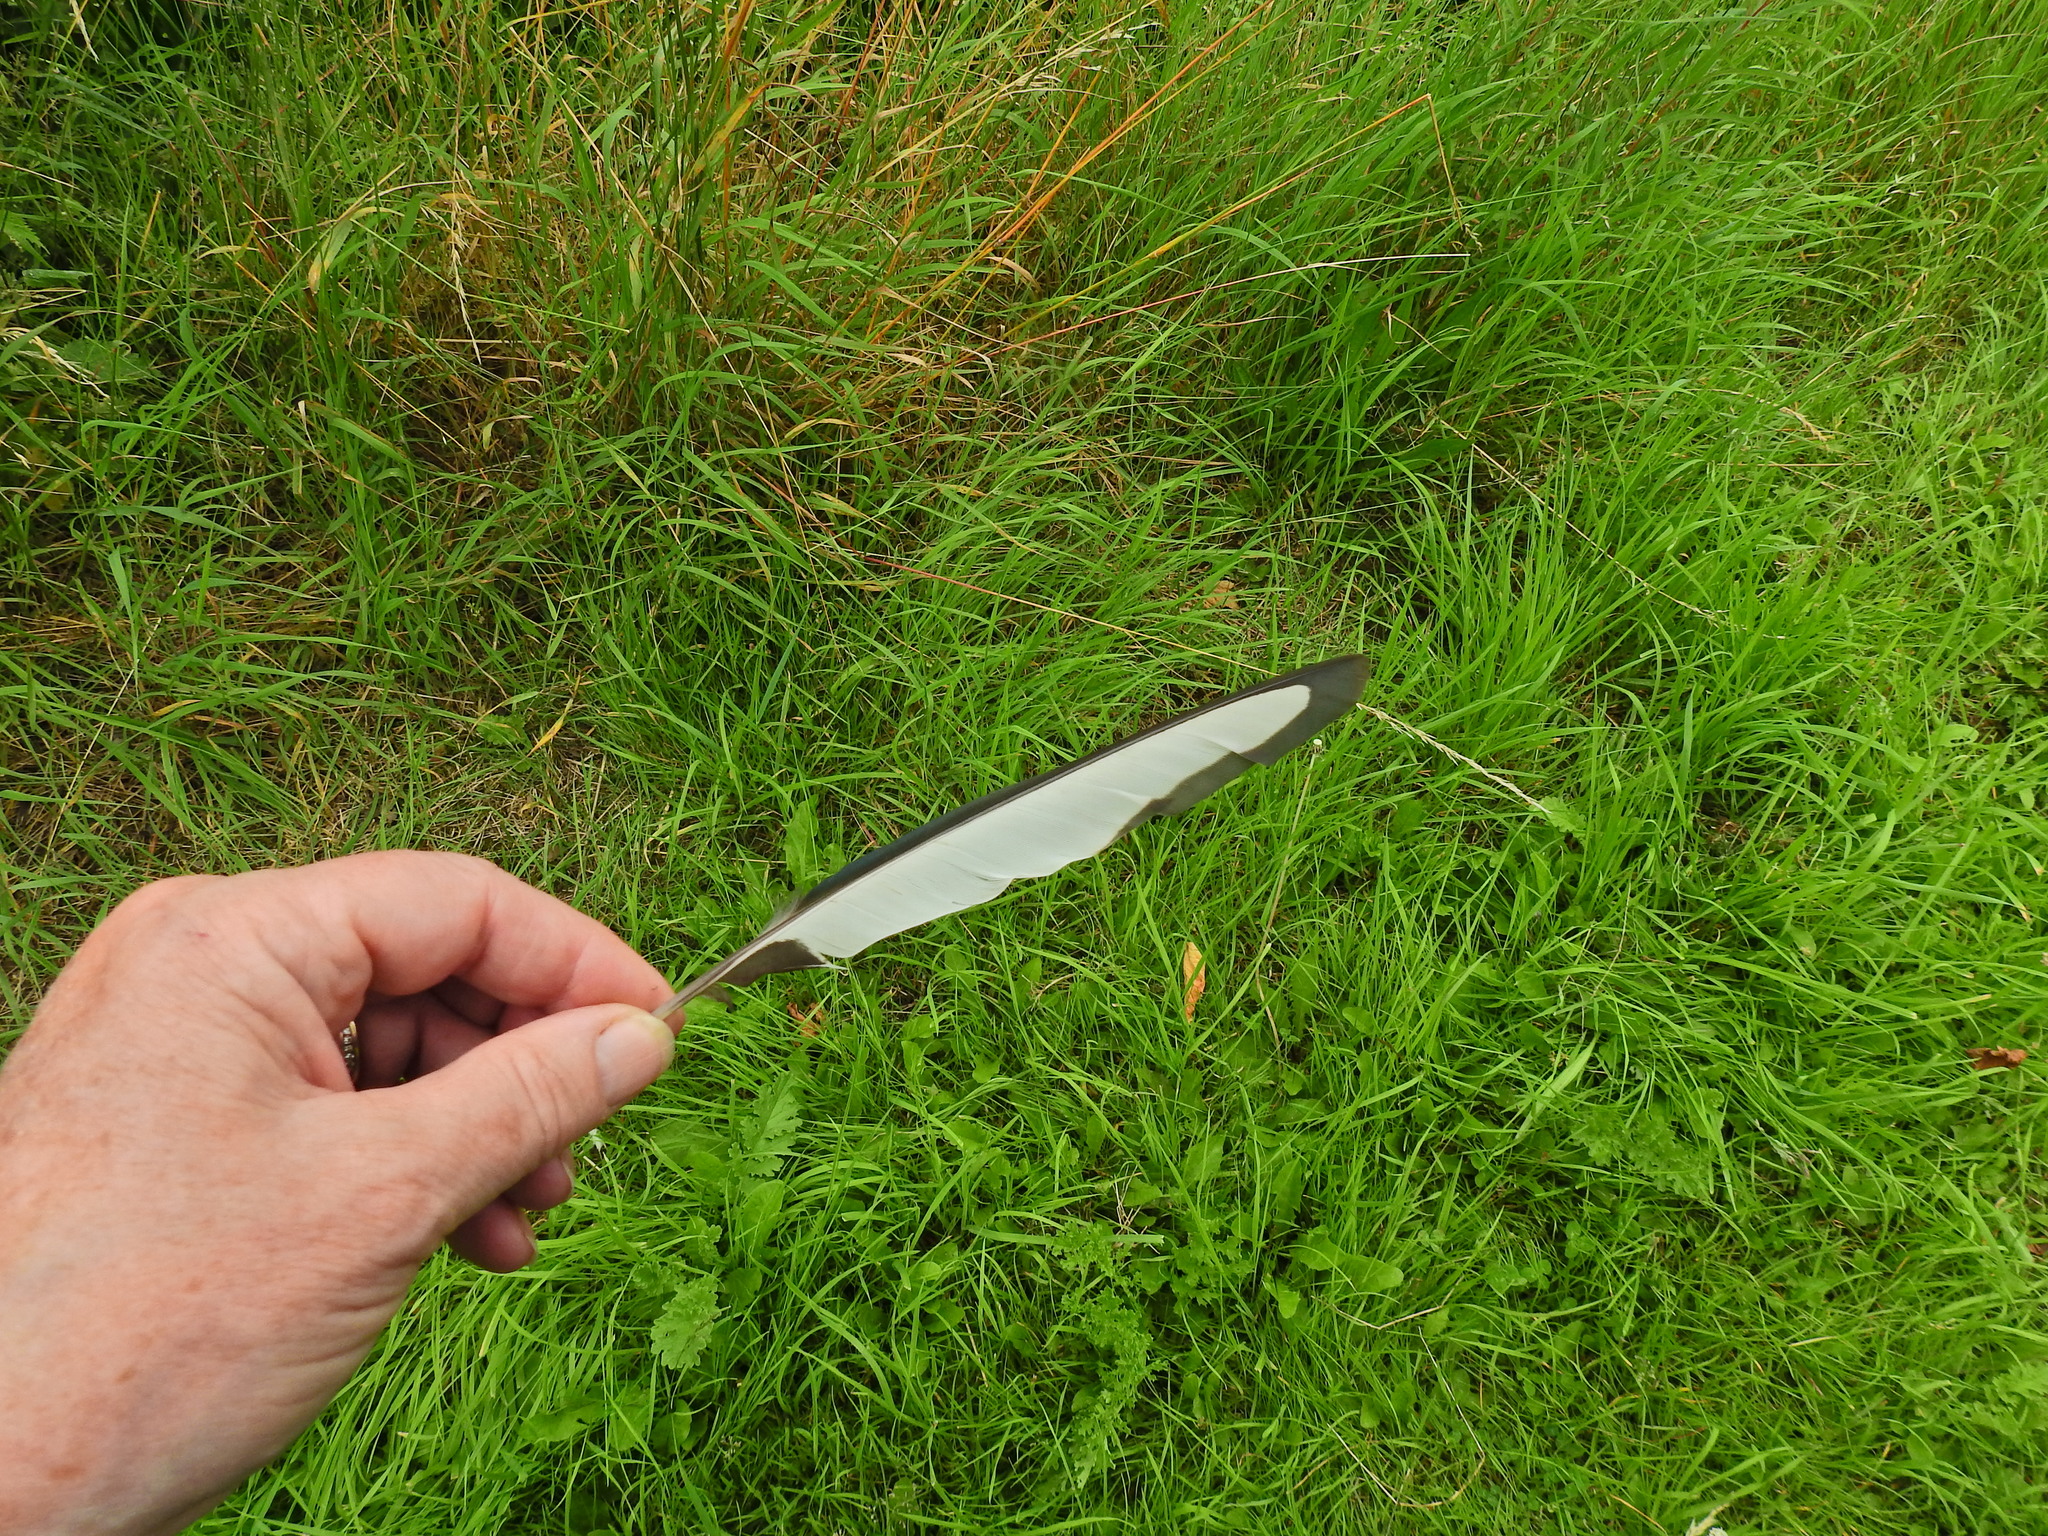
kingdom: Animalia
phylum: Chordata
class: Aves
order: Passeriformes
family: Corvidae
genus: Pica
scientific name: Pica pica
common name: Eurasian magpie
